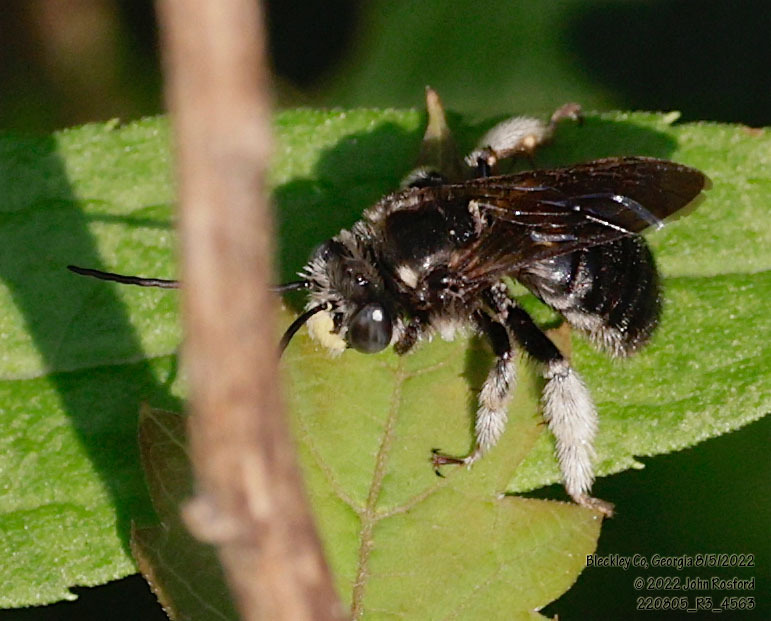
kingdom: Animalia
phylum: Arthropoda
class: Insecta
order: Hymenoptera
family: Apidae
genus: Melissodes
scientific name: Melissodes bimaculatus
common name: Two-spotted long-horned bee
